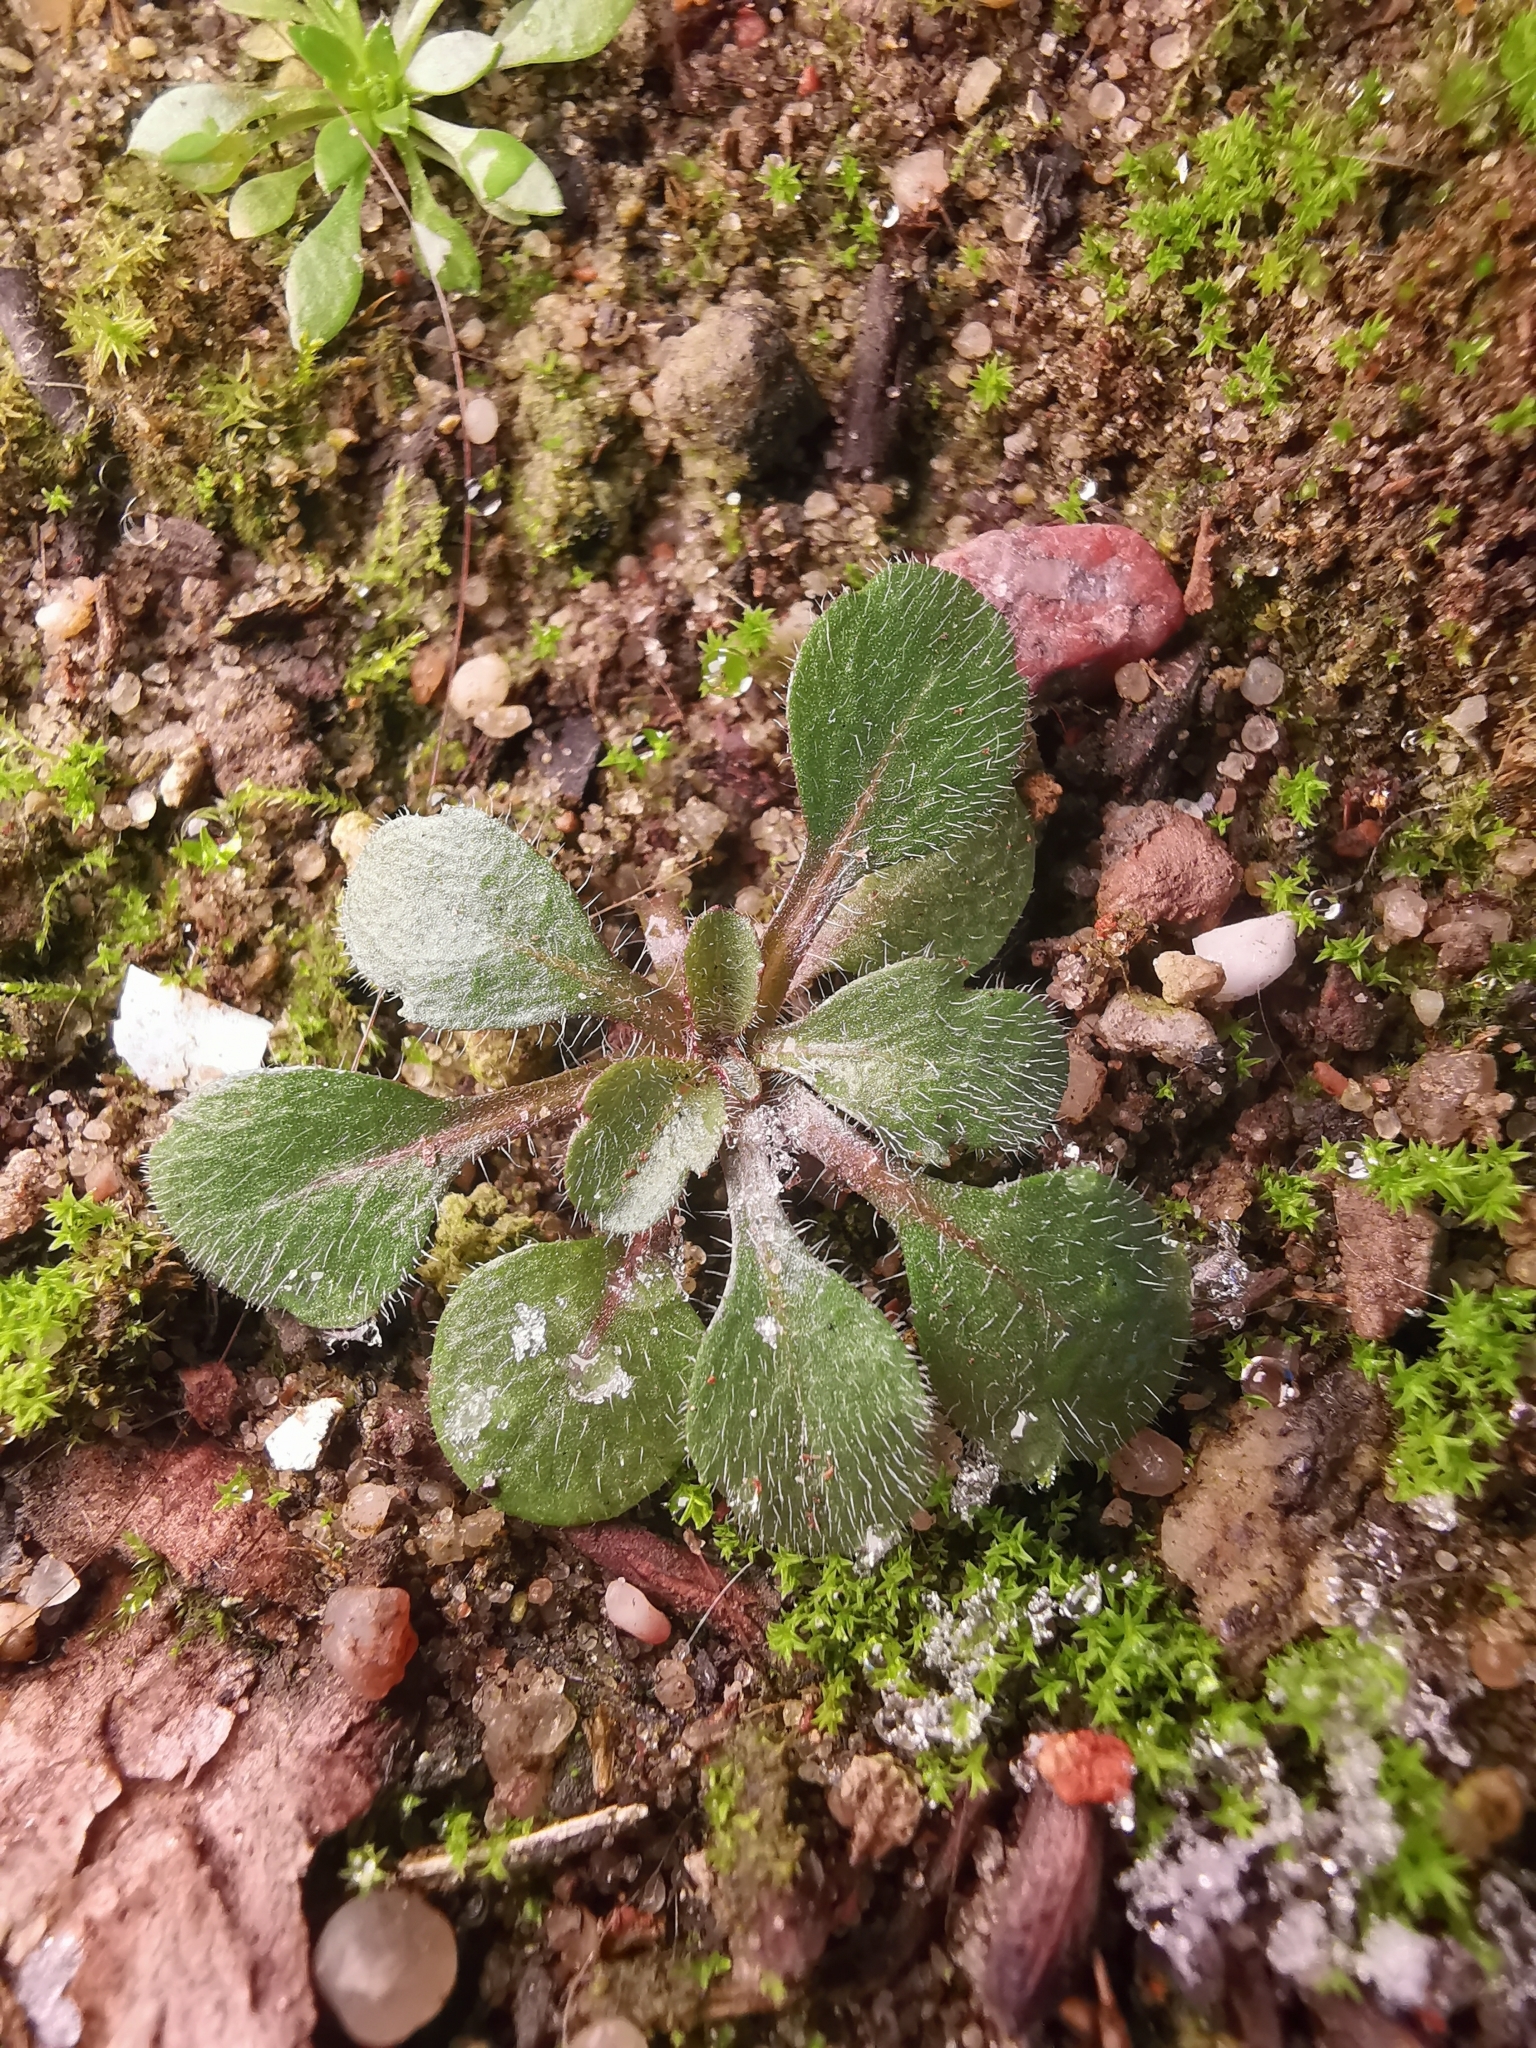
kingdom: Plantae
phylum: Tracheophyta
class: Magnoliopsida
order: Asterales
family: Asteraceae
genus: Erigeron
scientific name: Erigeron canadensis
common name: Canadian fleabane
